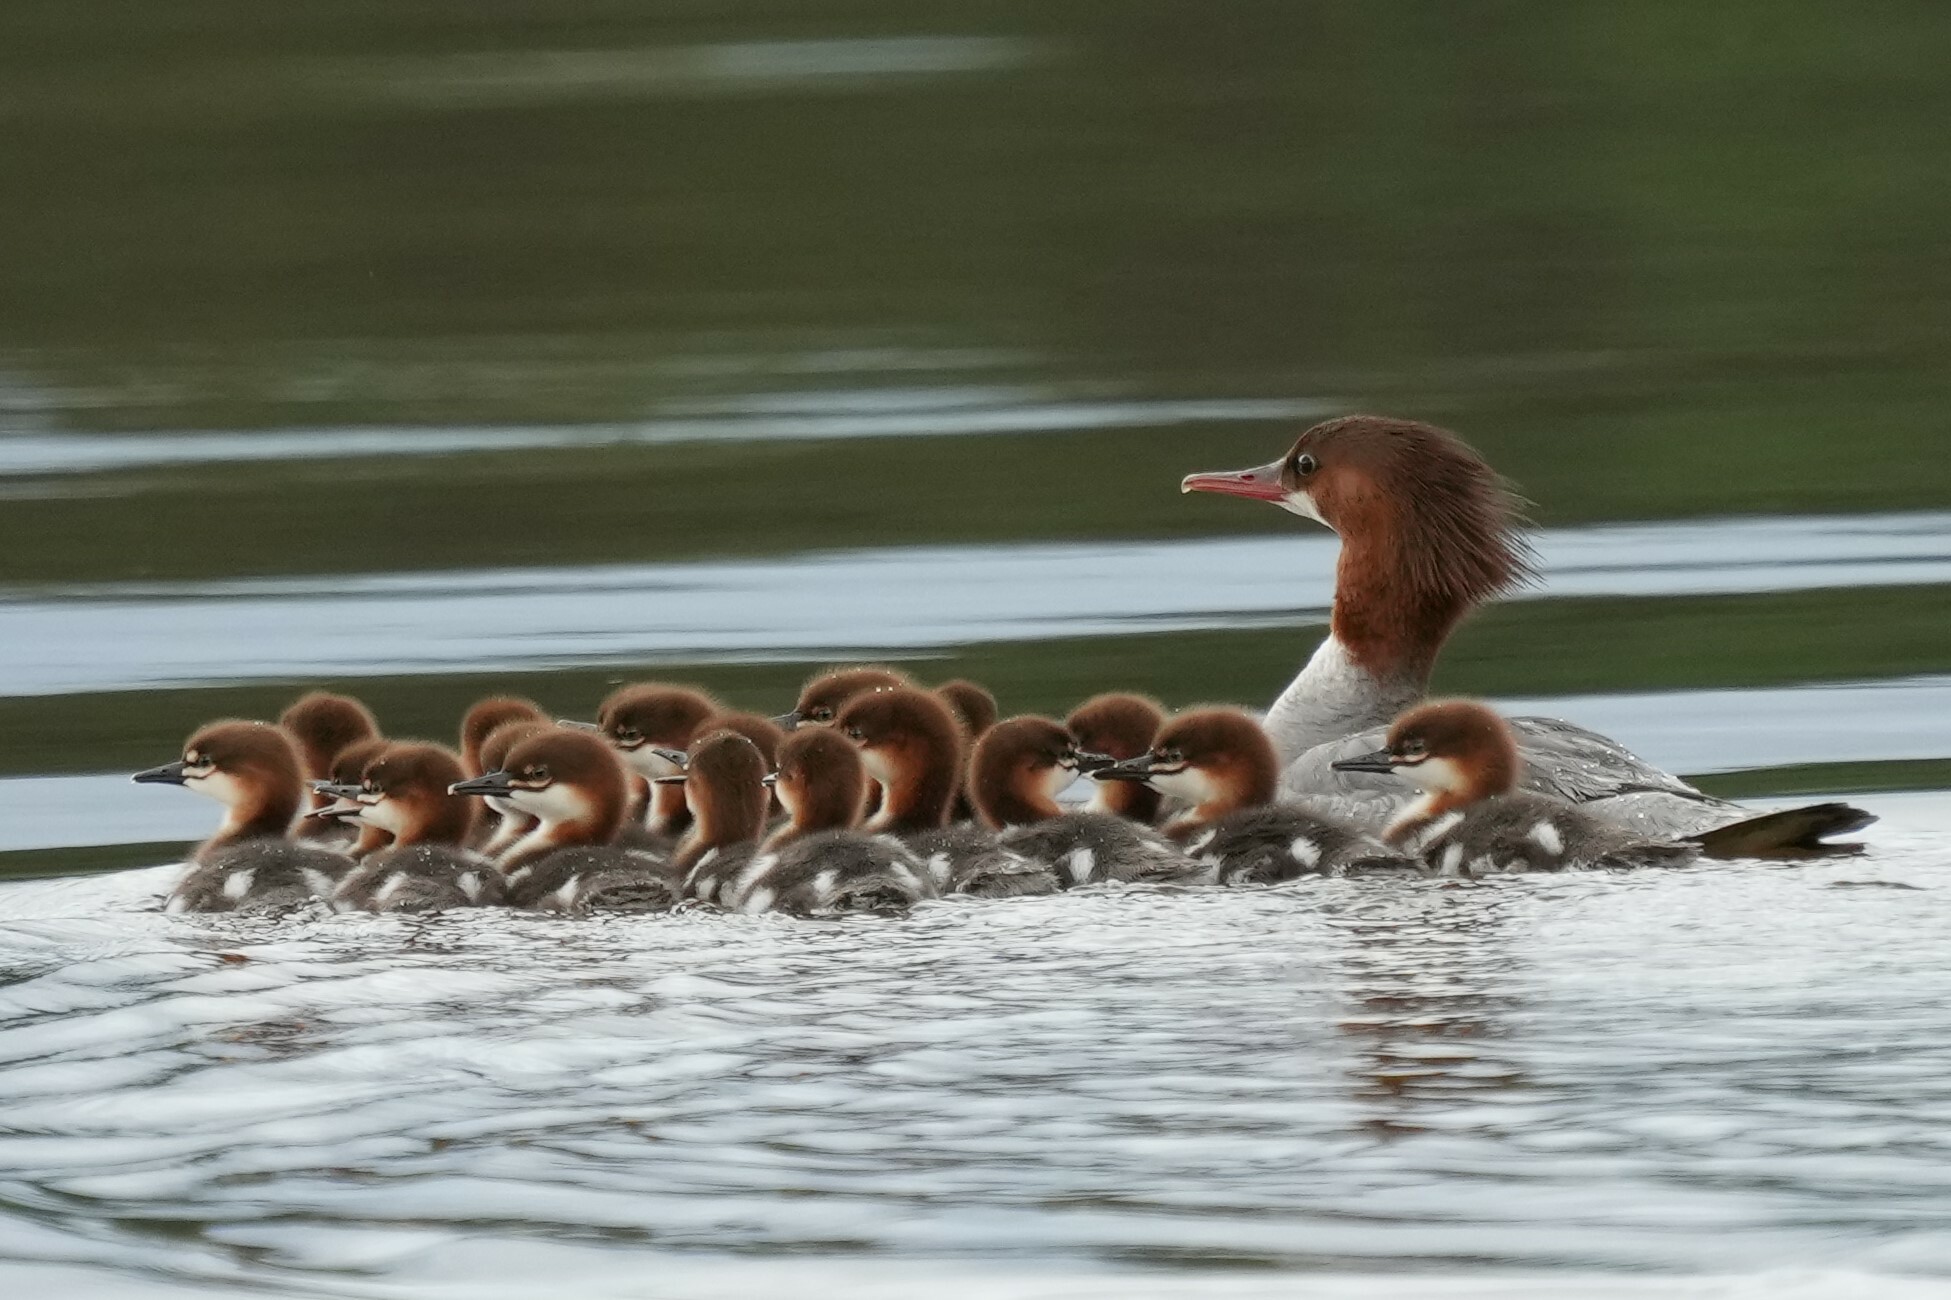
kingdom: Animalia
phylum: Chordata
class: Aves
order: Anseriformes
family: Anatidae
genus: Mergus
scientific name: Mergus merganser
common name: Common merganser
